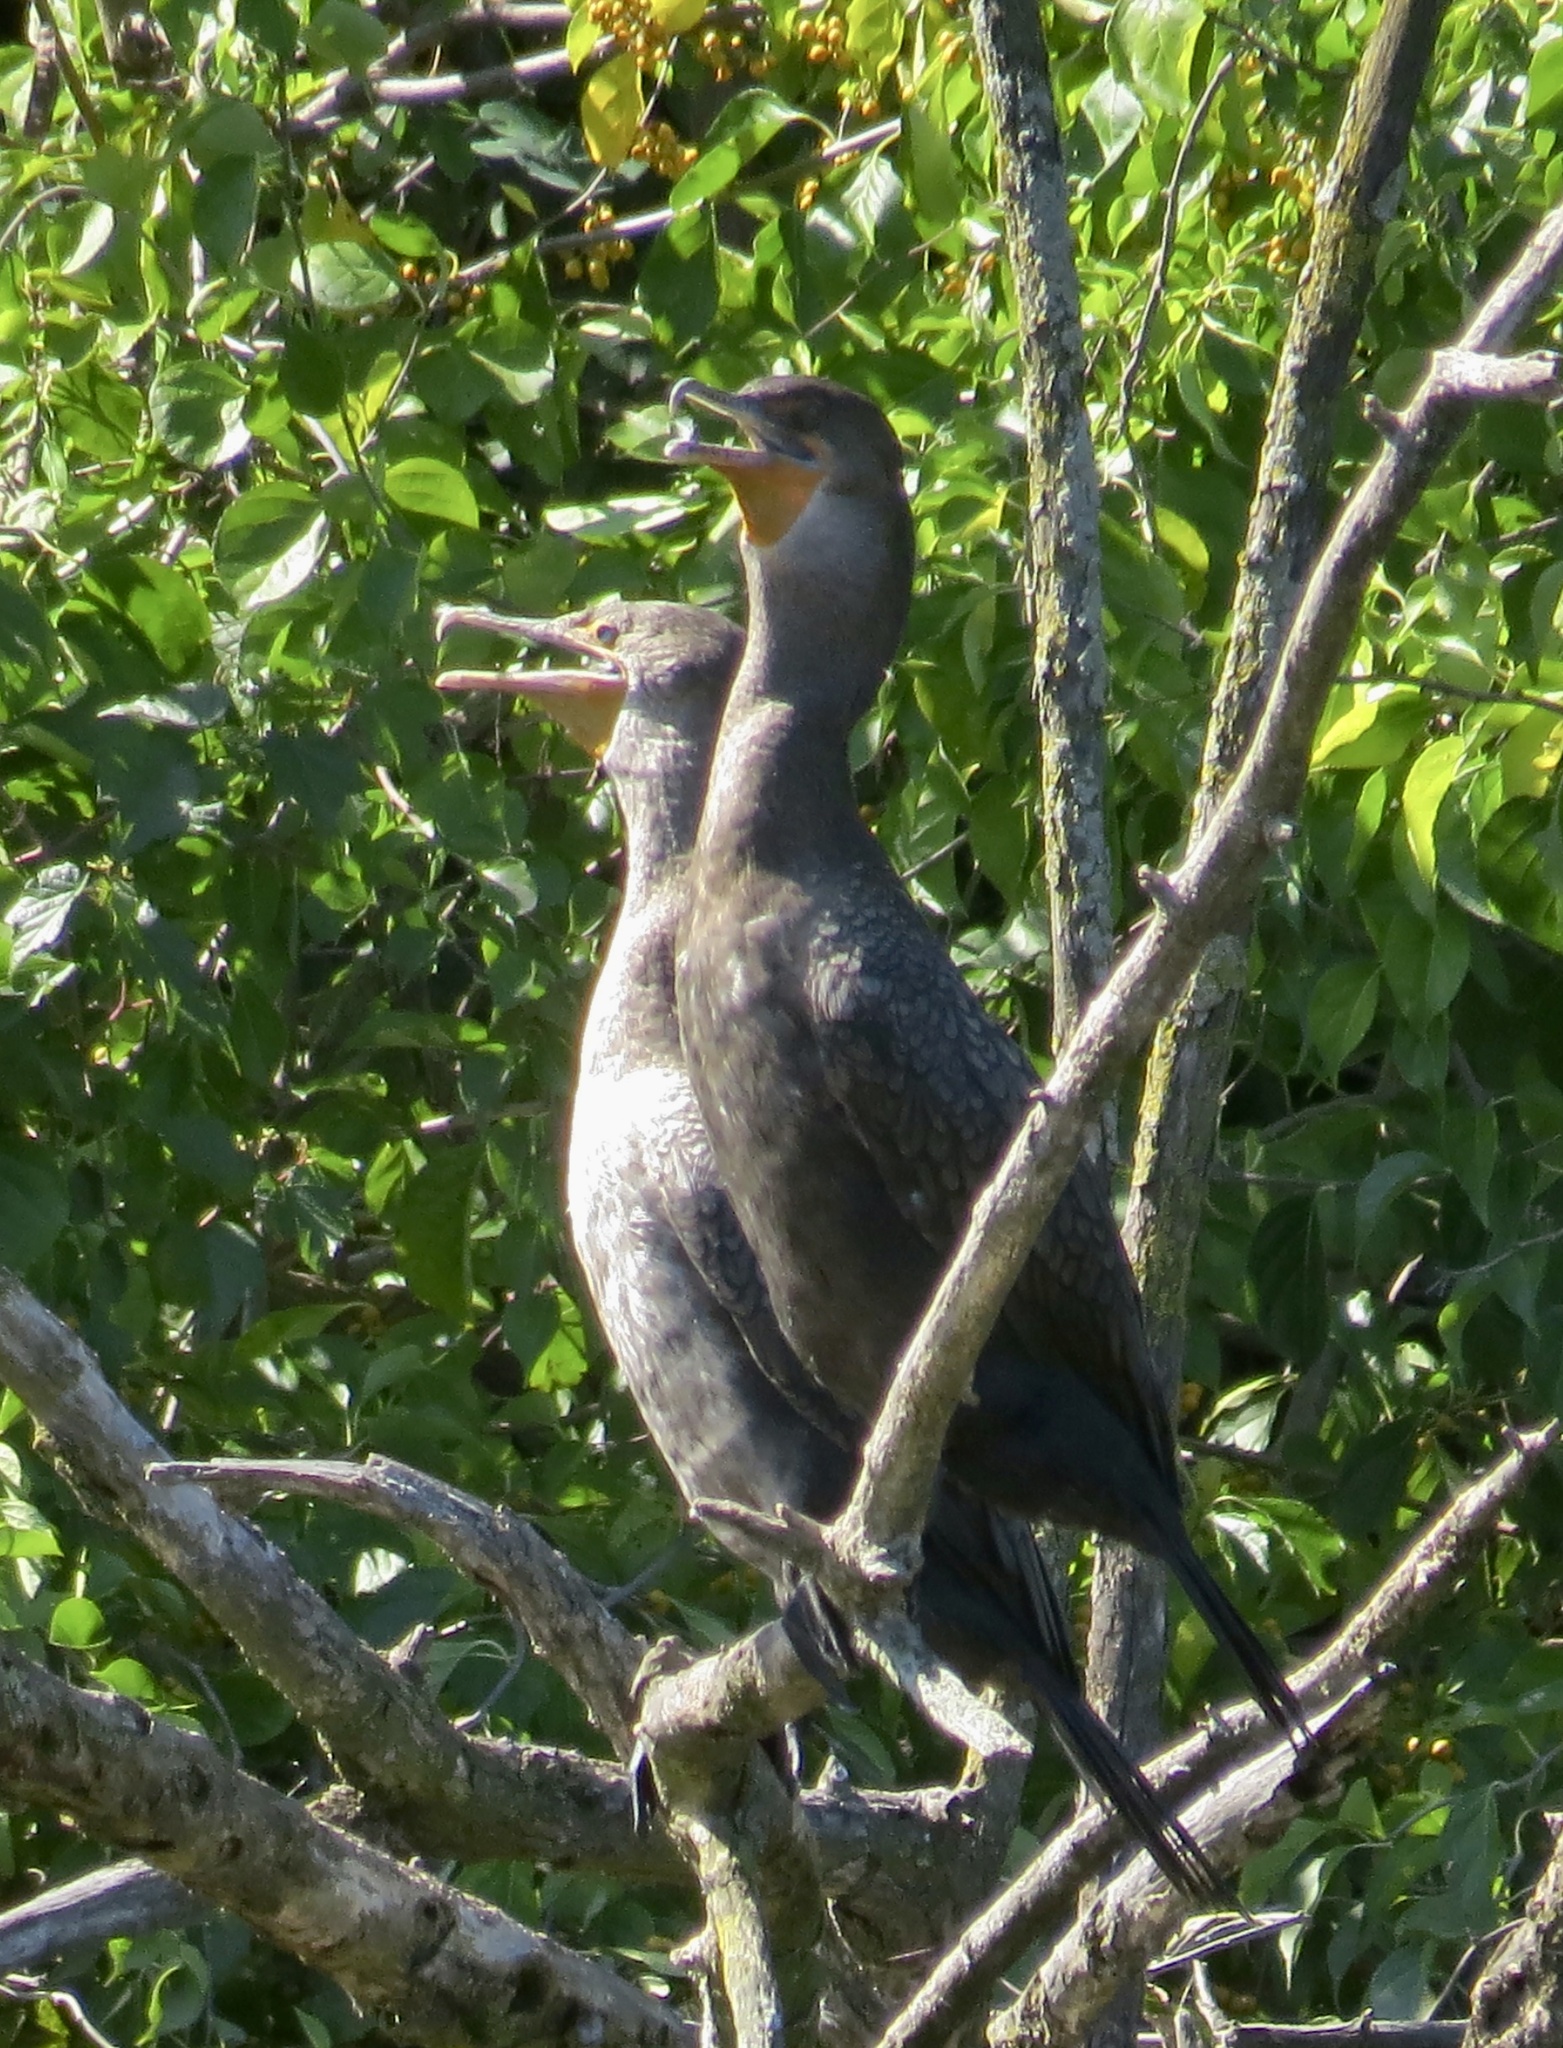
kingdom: Animalia
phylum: Chordata
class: Aves
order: Suliformes
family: Phalacrocoracidae
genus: Phalacrocorax
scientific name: Phalacrocorax auritus
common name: Double-crested cormorant
